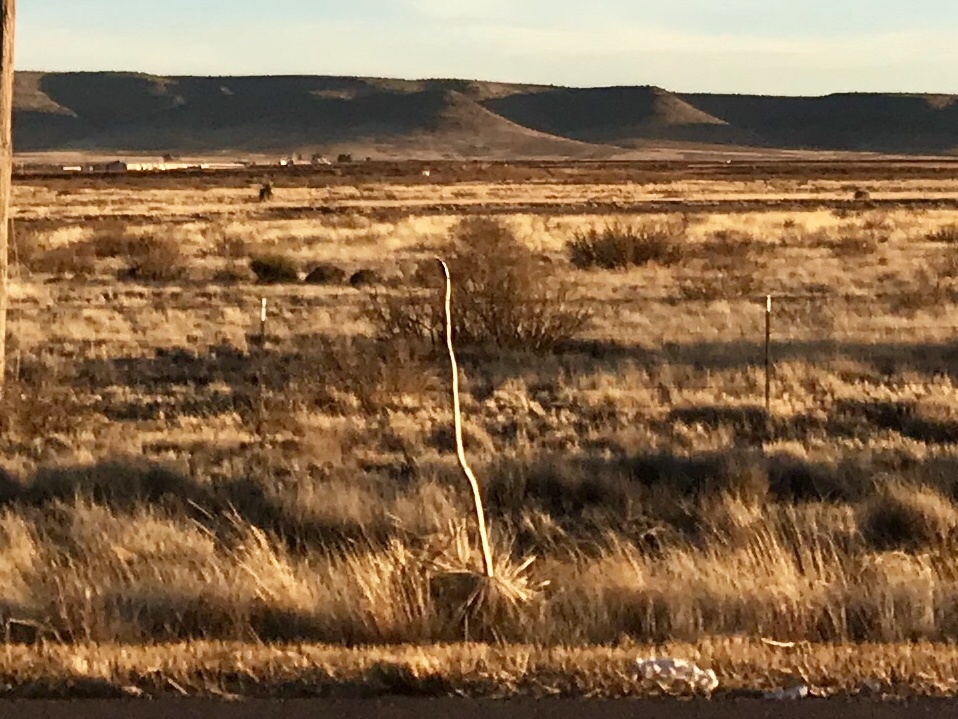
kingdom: Plantae
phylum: Tracheophyta
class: Liliopsida
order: Asparagales
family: Asparagaceae
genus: Yucca
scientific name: Yucca elata
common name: Palmella
